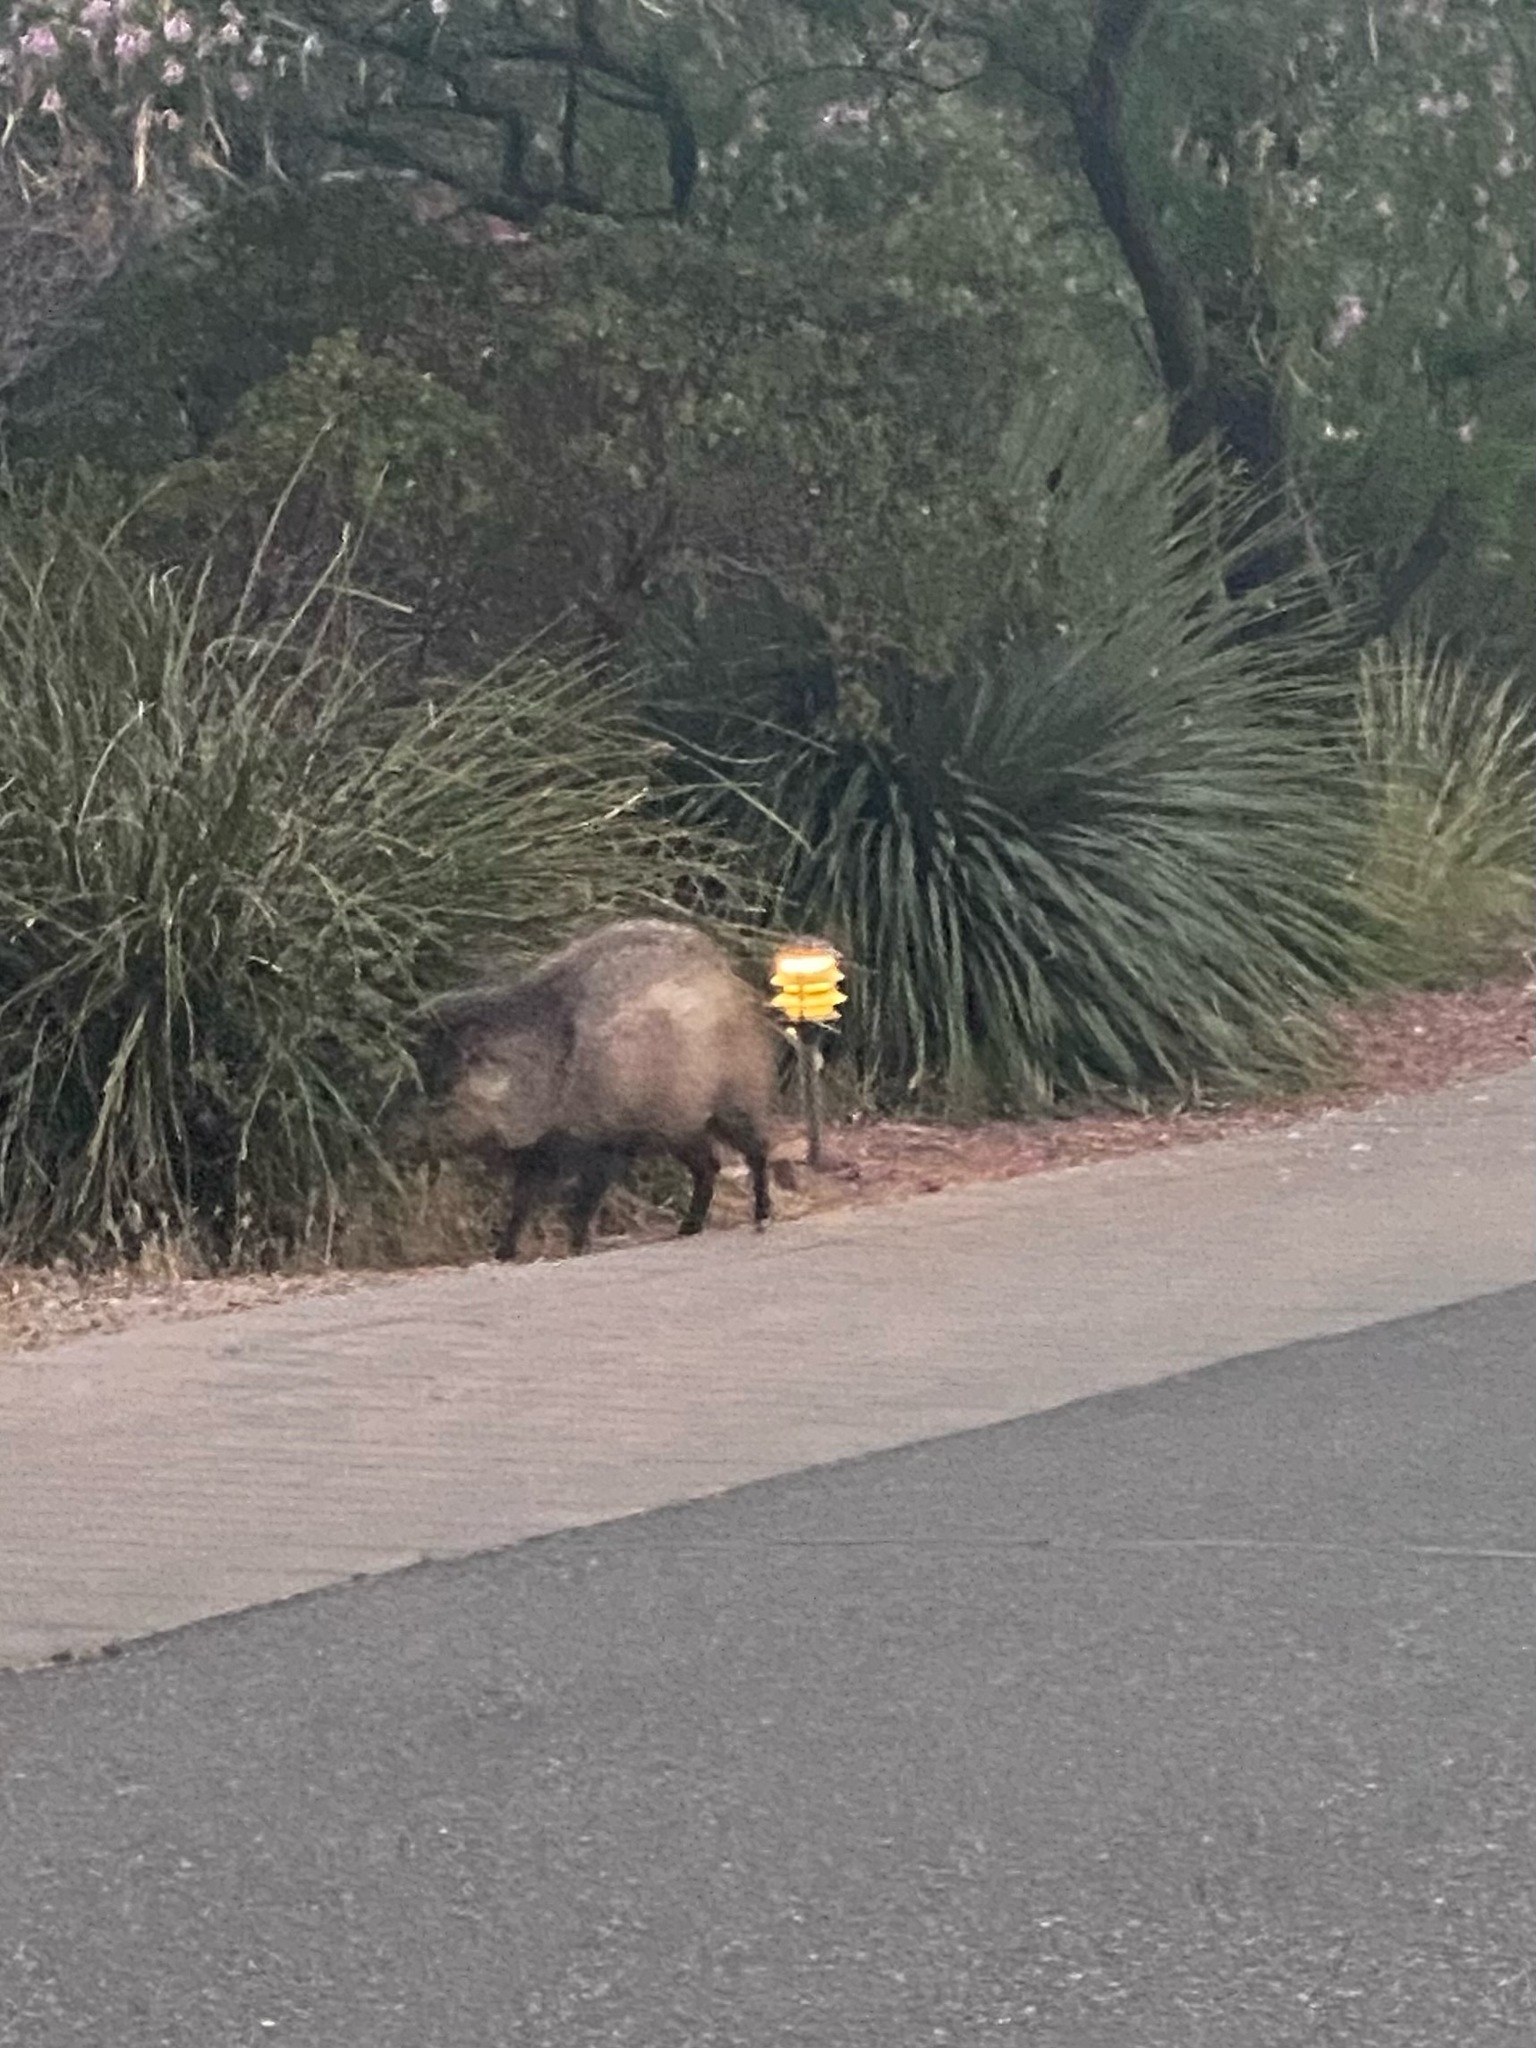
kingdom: Animalia
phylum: Chordata
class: Mammalia
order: Artiodactyla
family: Tayassuidae
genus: Pecari
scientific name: Pecari tajacu
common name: Collared peccary
